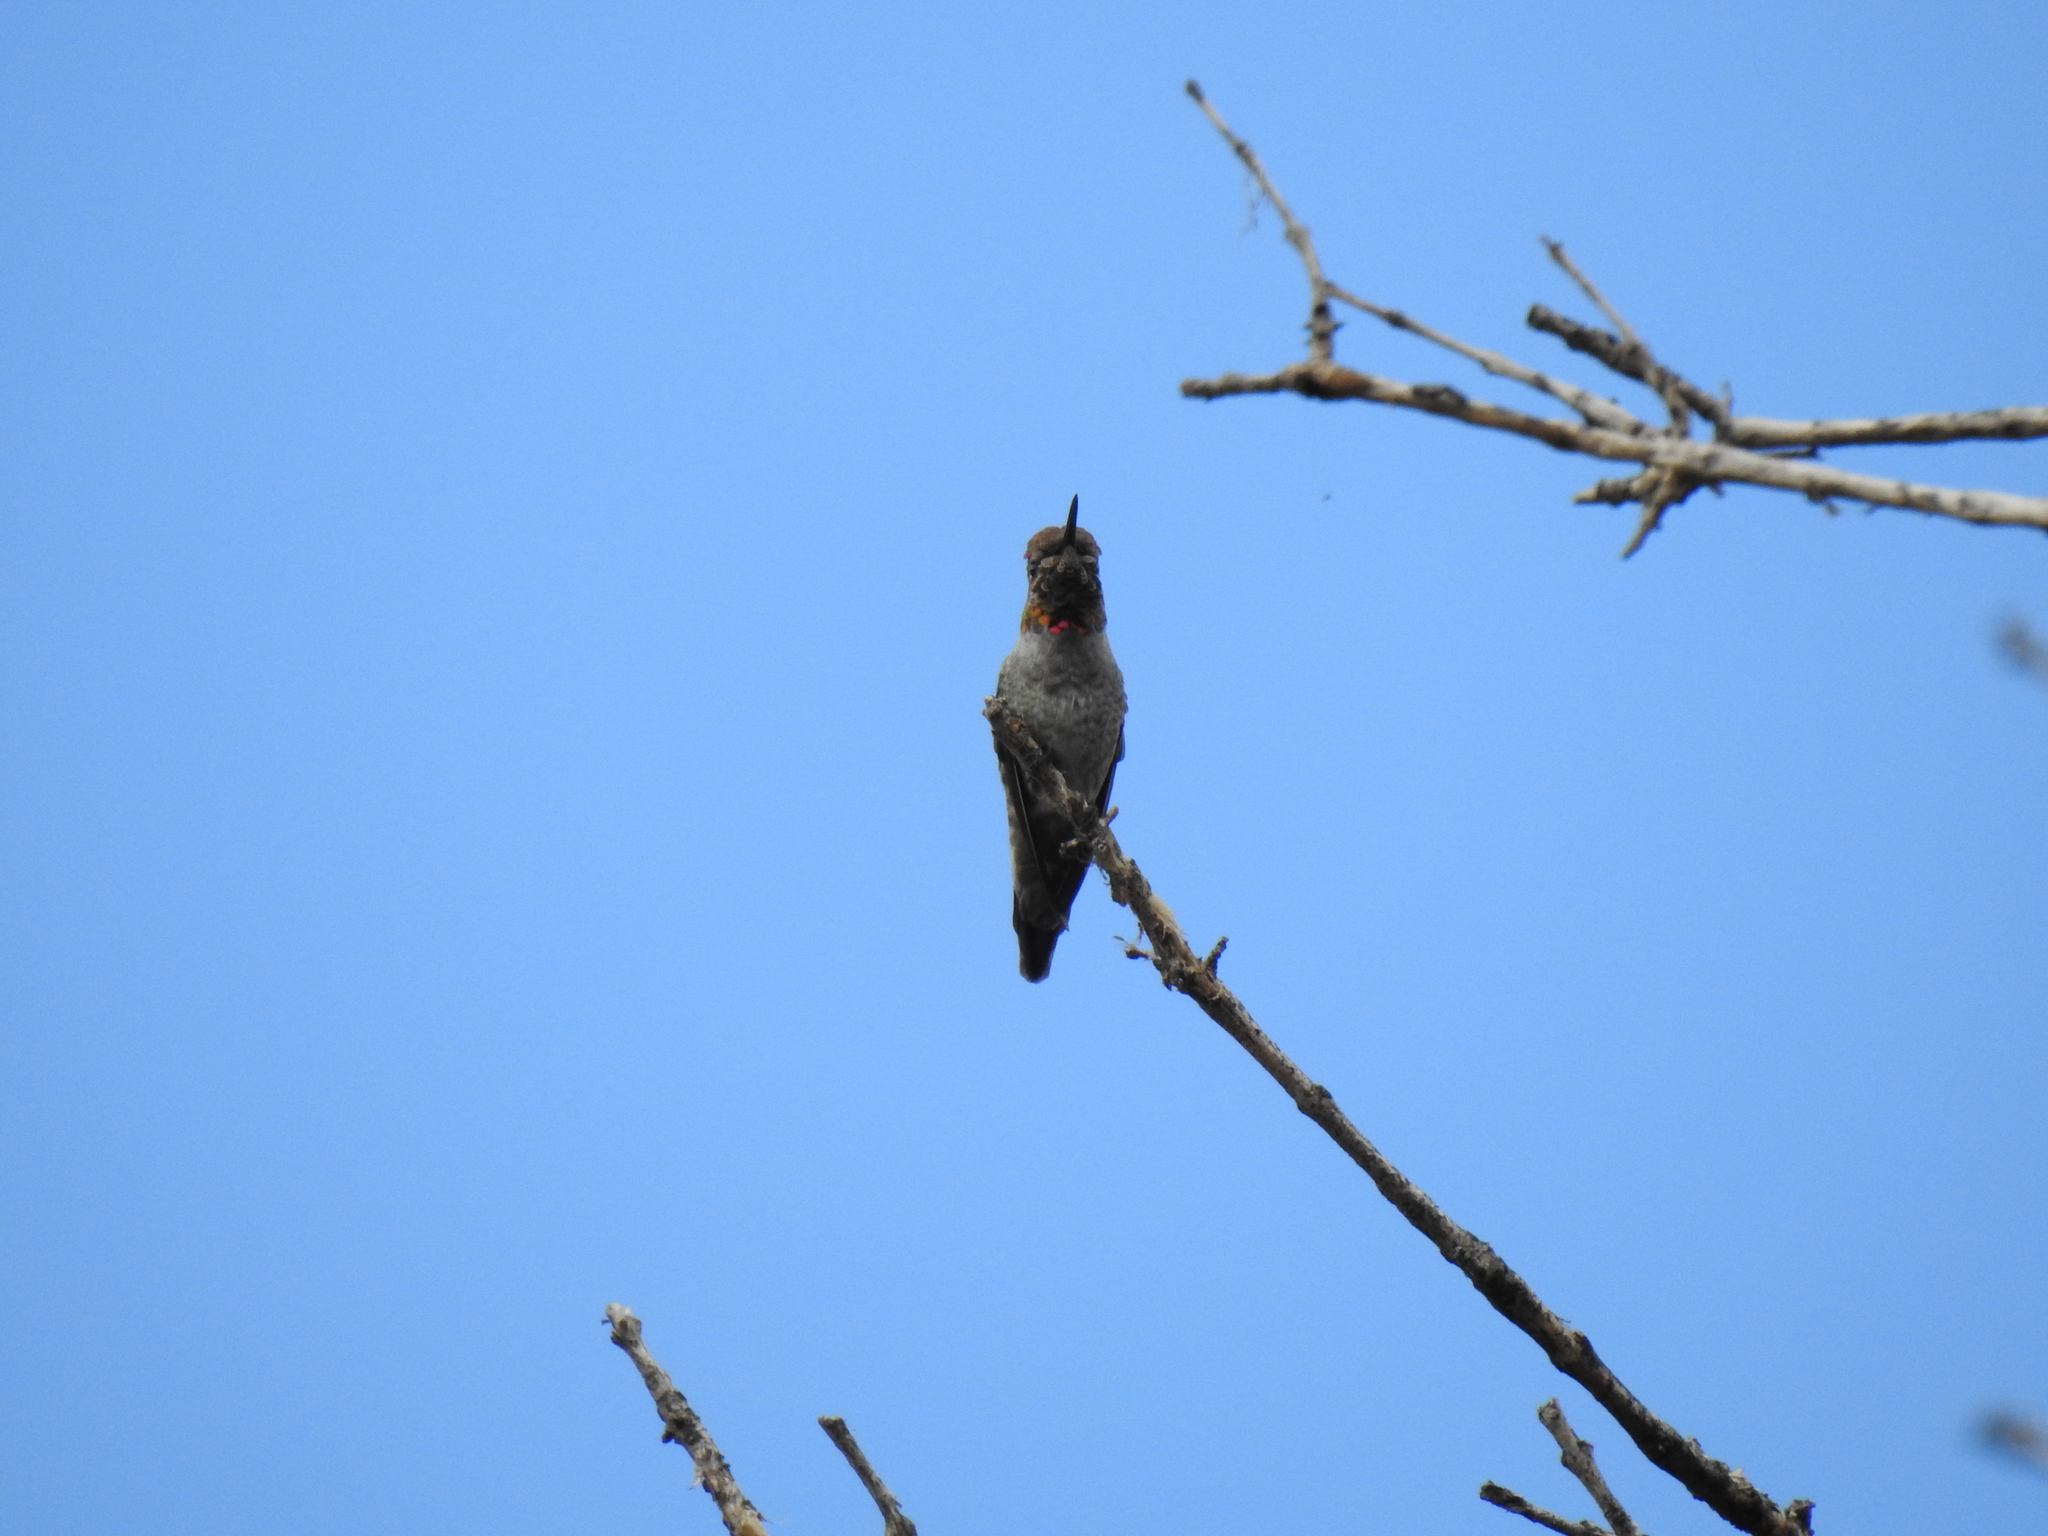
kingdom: Animalia
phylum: Chordata
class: Aves
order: Apodiformes
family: Trochilidae
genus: Calypte
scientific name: Calypte anna
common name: Anna's hummingbird
